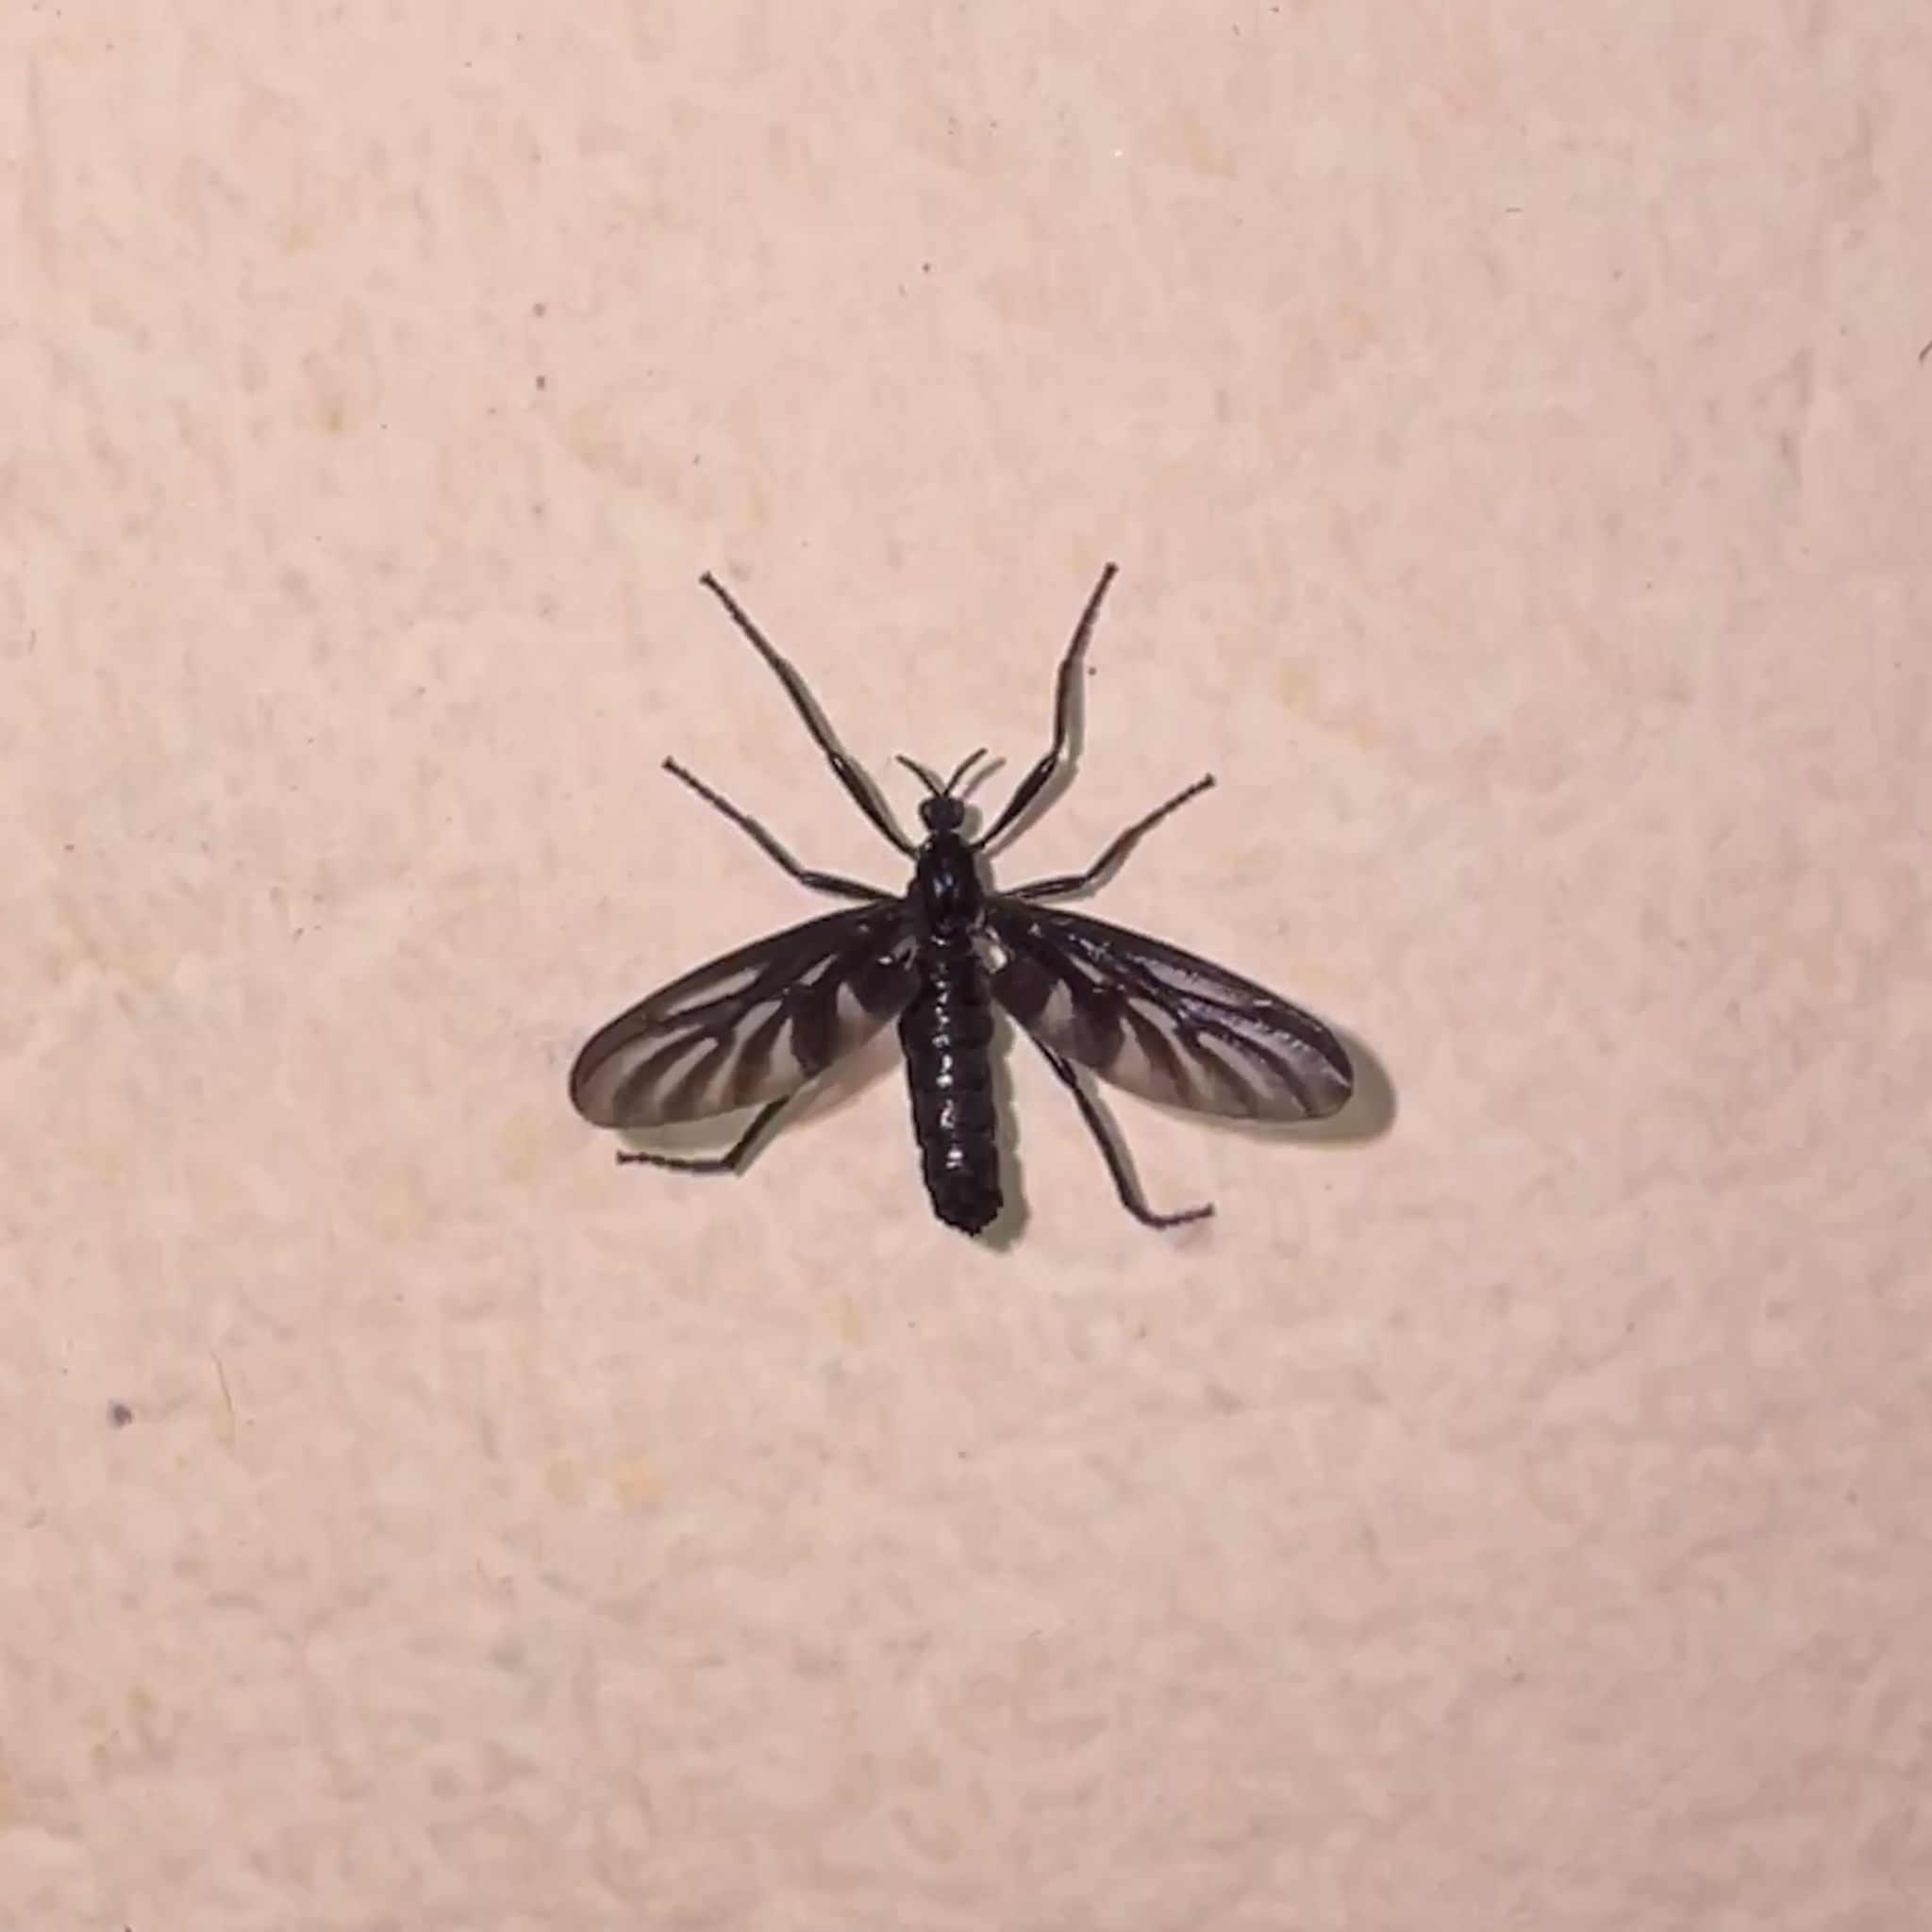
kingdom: Animalia
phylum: Arthropoda
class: Insecta
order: Diptera
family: Bibionidae
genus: Plecia
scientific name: Plecia plagiata
